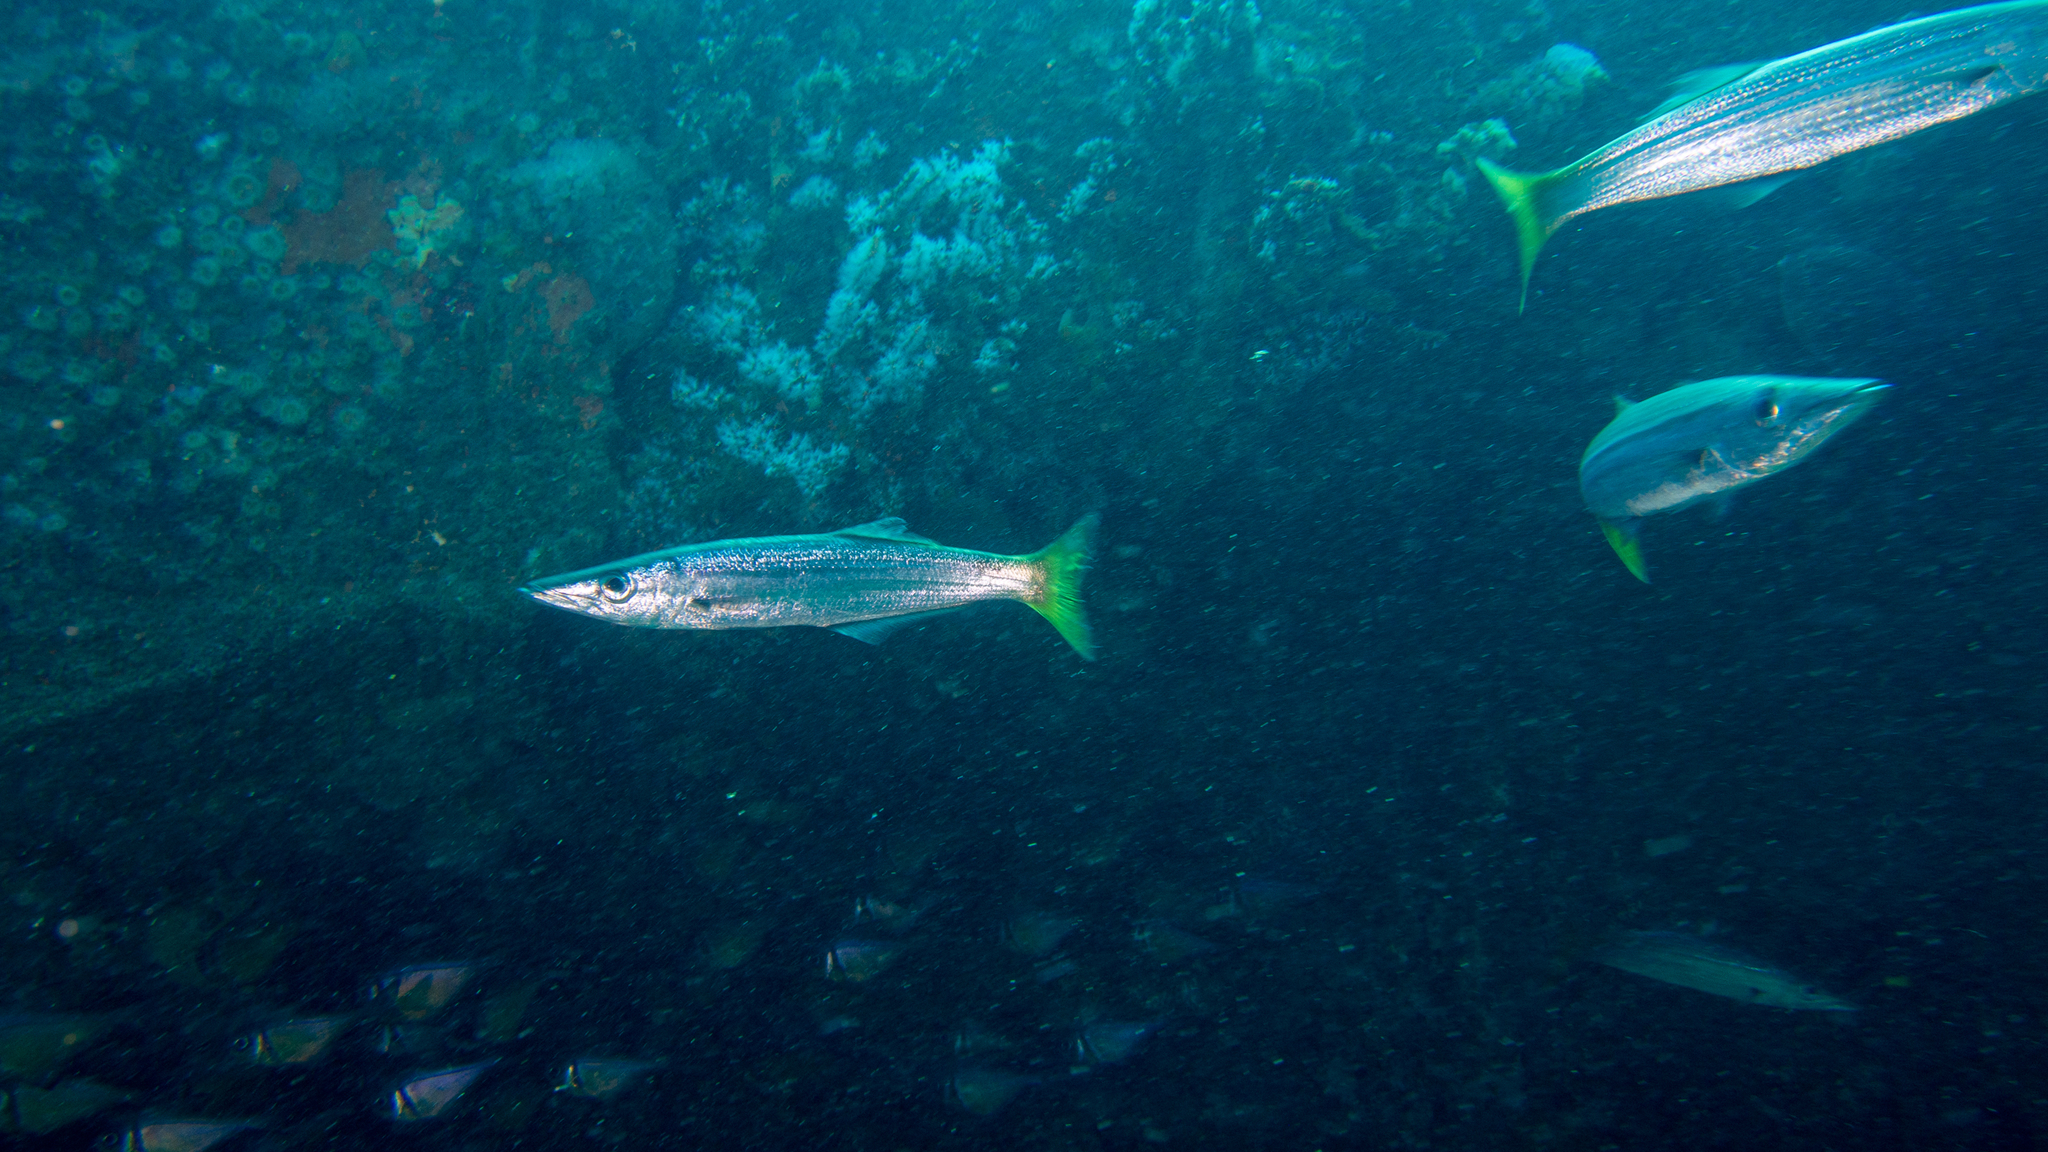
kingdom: Animalia
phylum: Chordata
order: Perciformes
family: Dinolestidae
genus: Dinolestes
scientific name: Dinolestes lewini
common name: Jack pike
